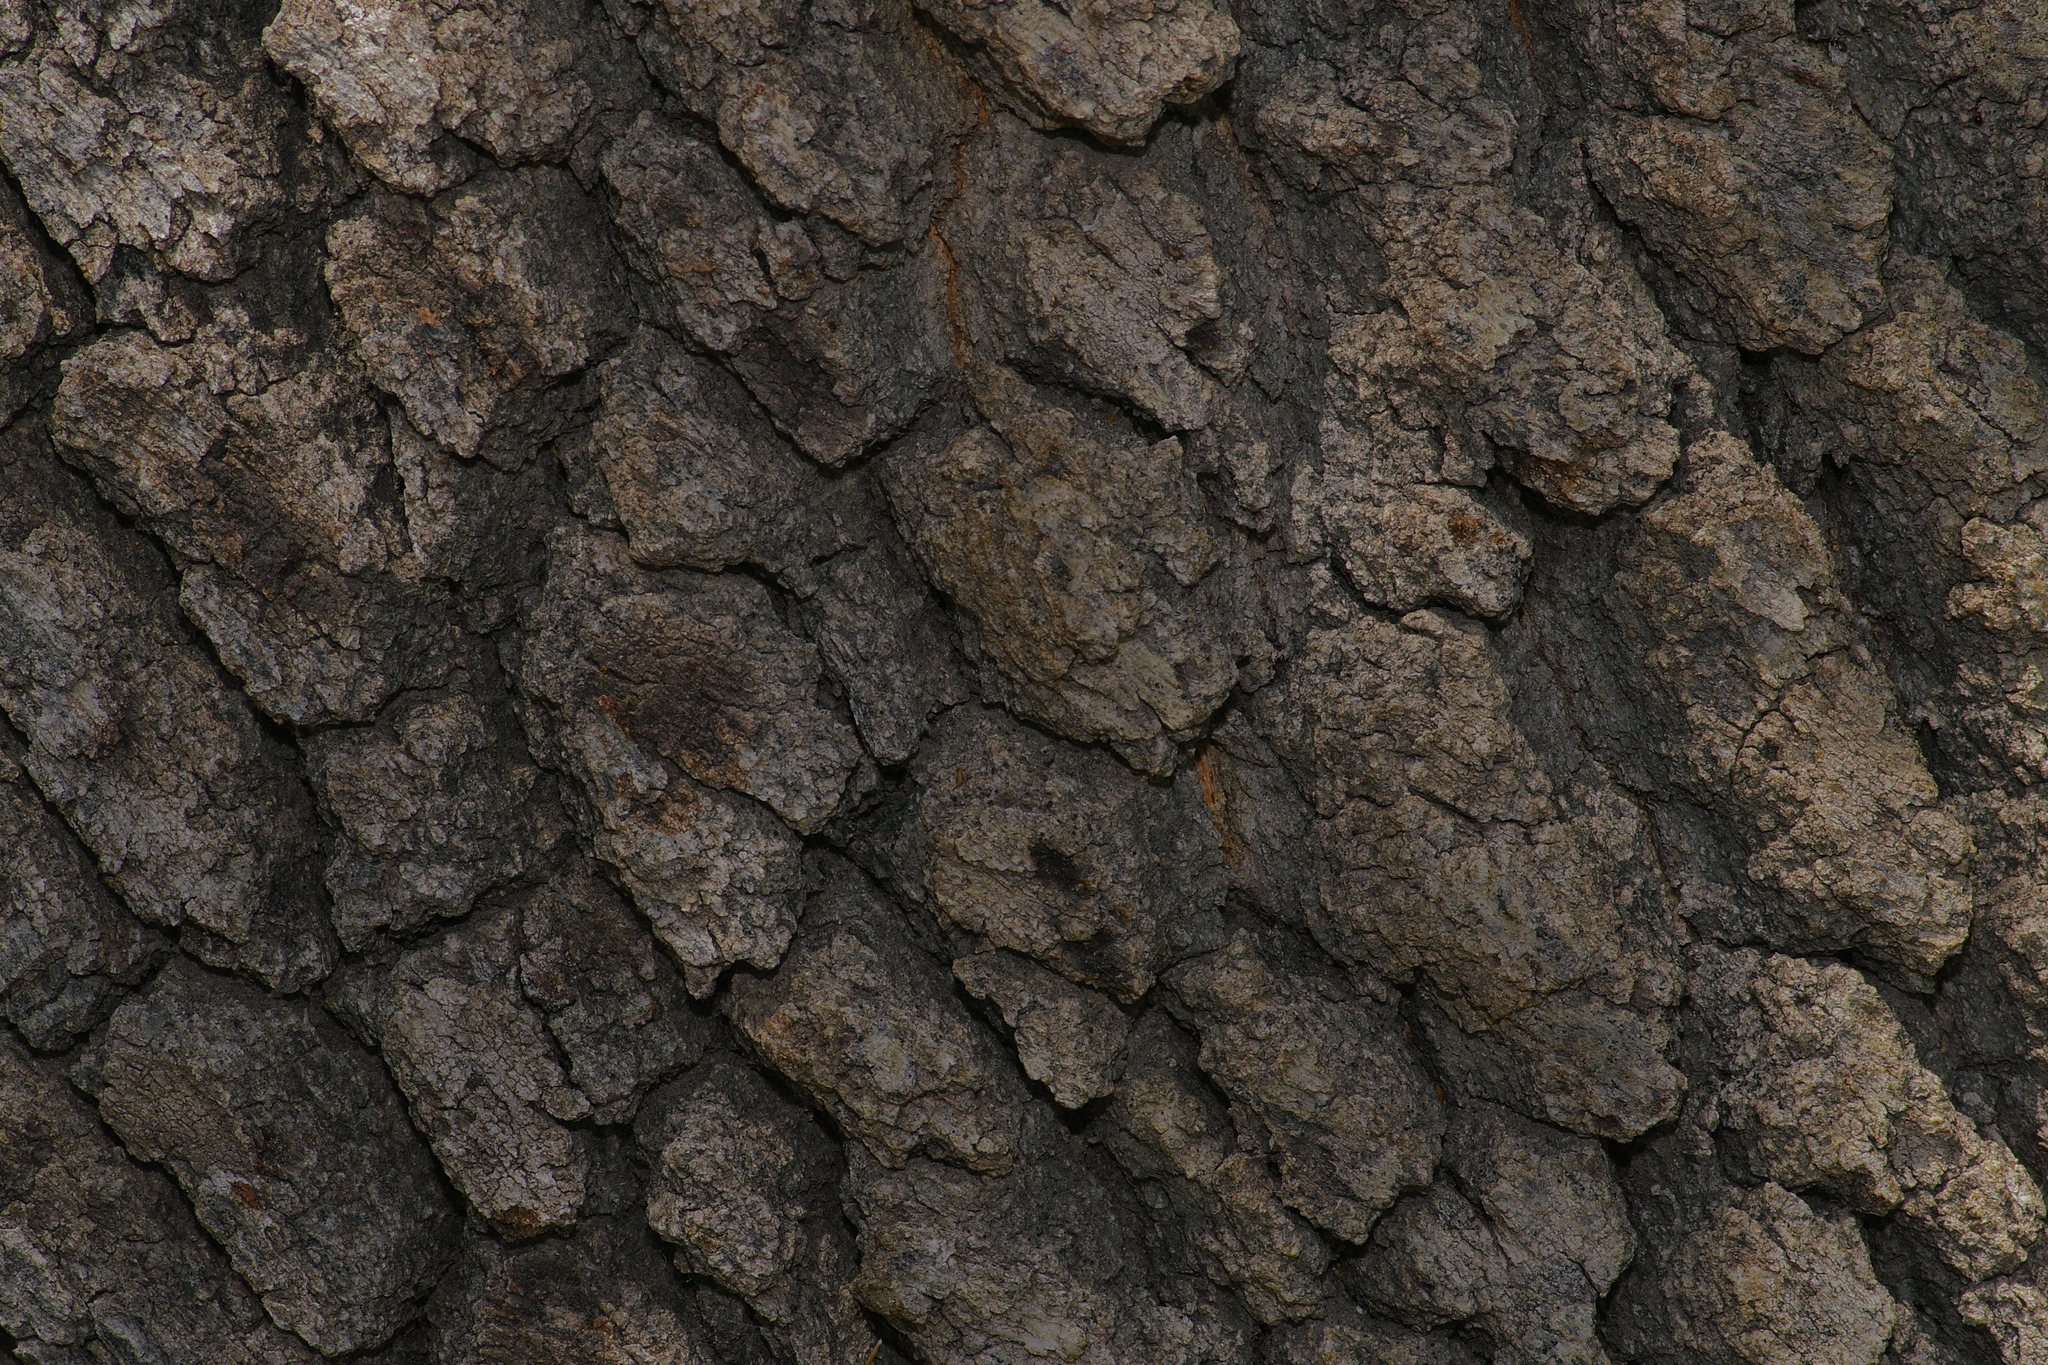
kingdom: Plantae
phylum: Tracheophyta
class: Magnoliopsida
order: Fagales
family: Fagaceae
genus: Quercus
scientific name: Quercus emoryi
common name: Emory oak
